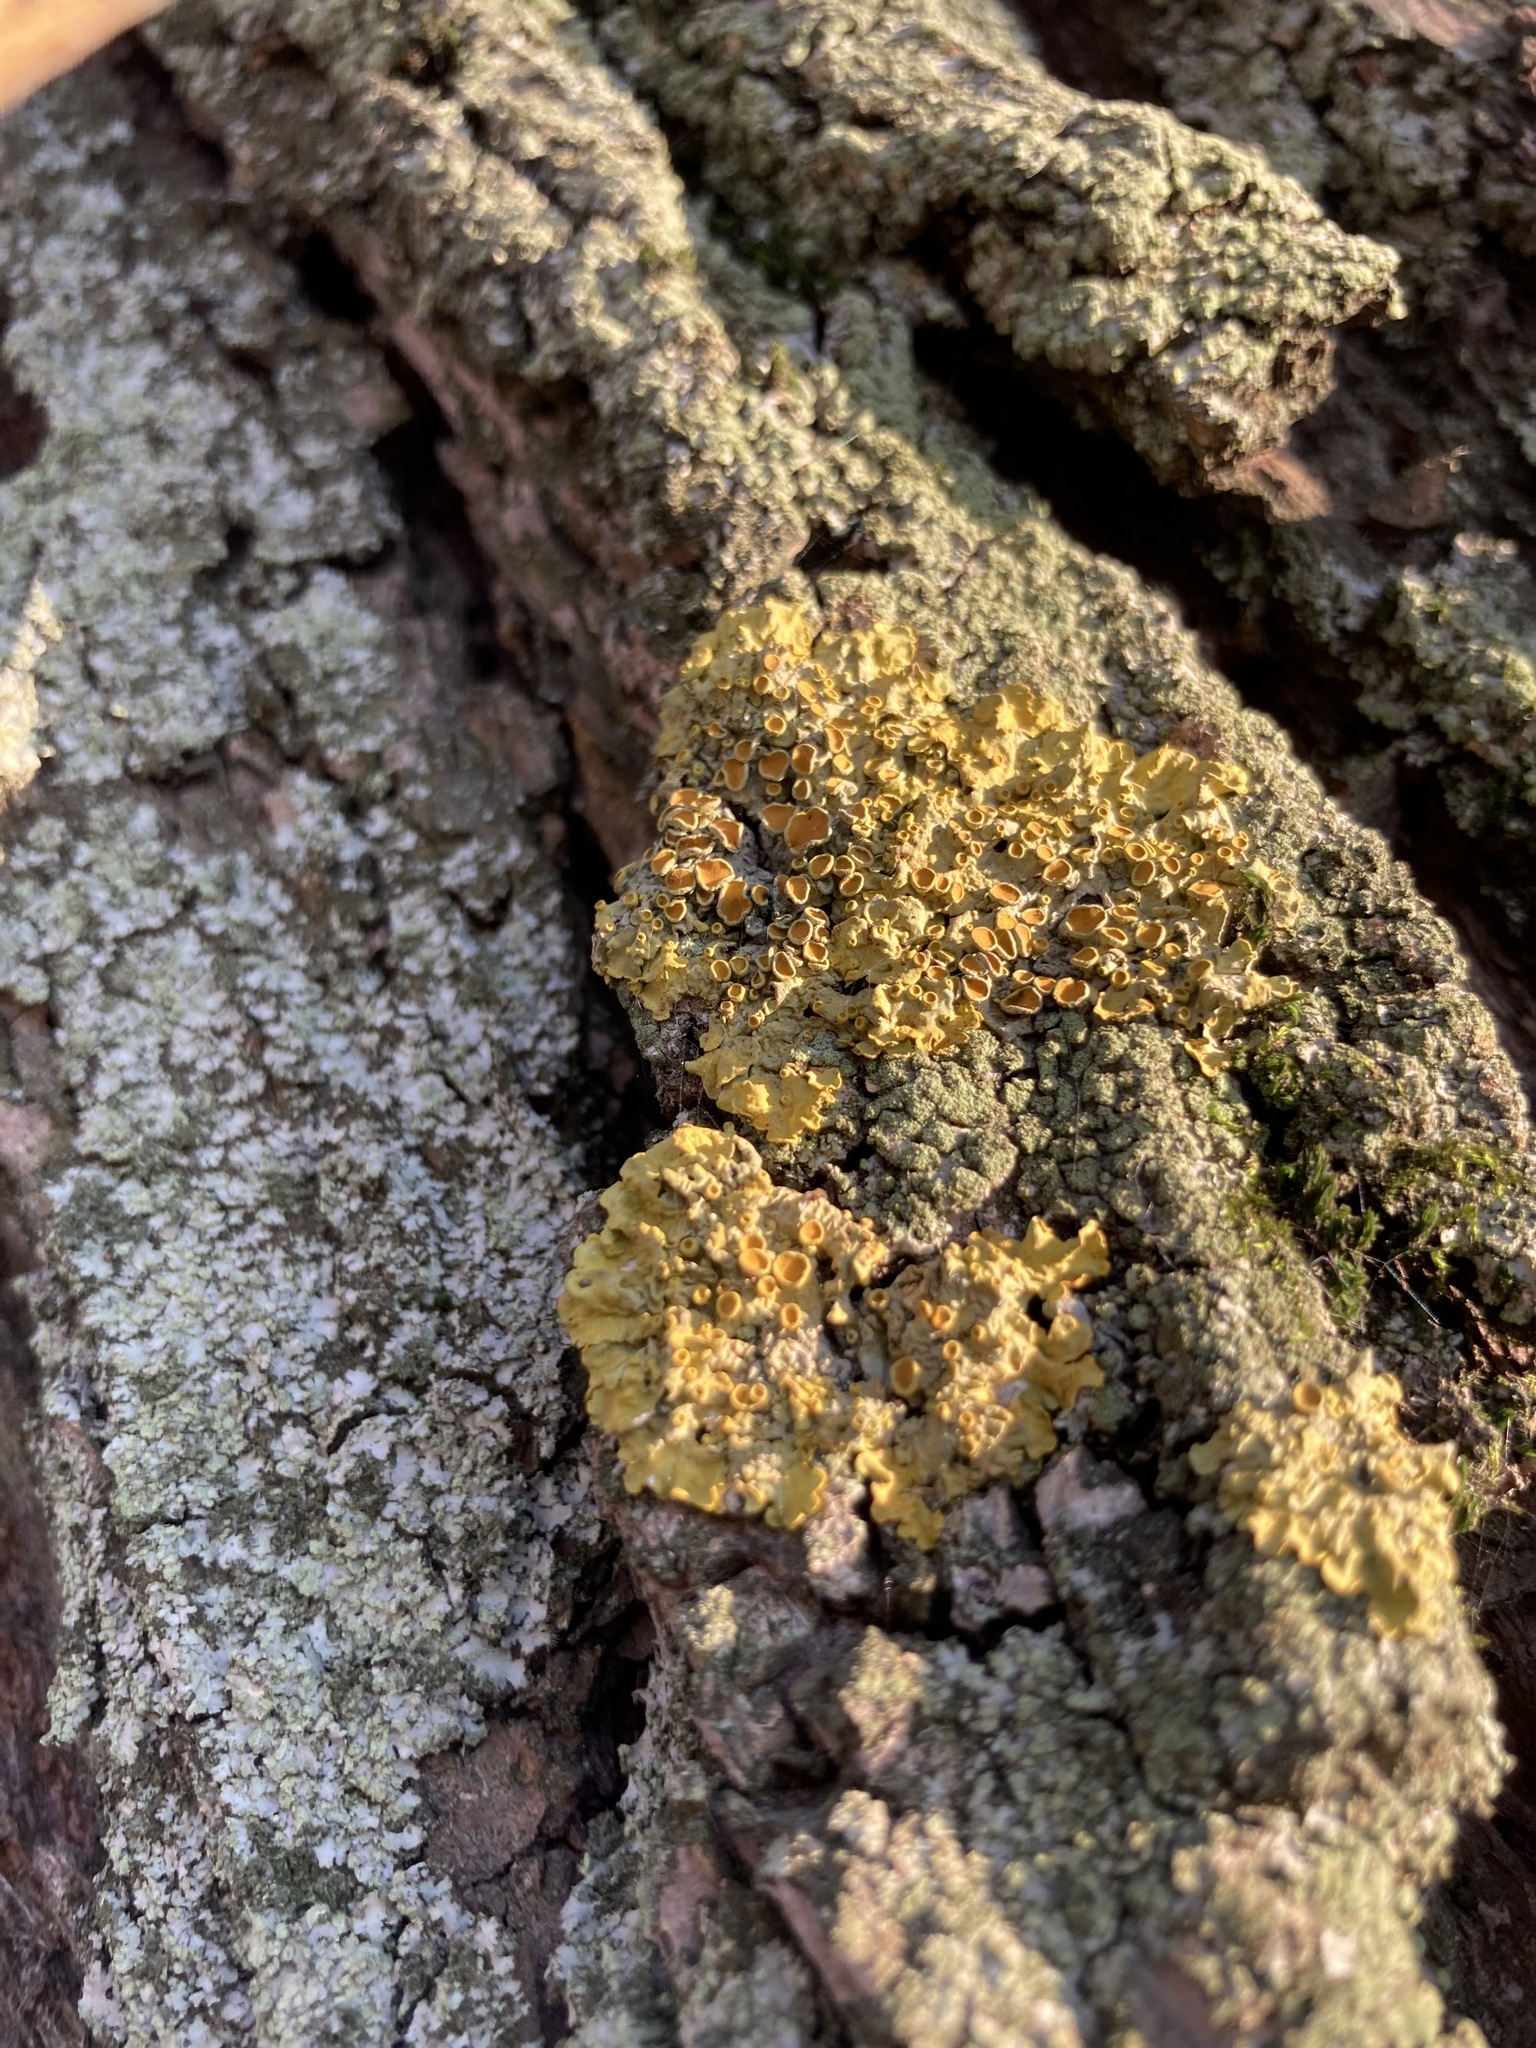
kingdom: Fungi
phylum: Ascomycota
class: Lecanoromycetes
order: Teloschistales
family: Teloschistaceae
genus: Xanthoria
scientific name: Xanthoria parietina
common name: Common orange lichen
